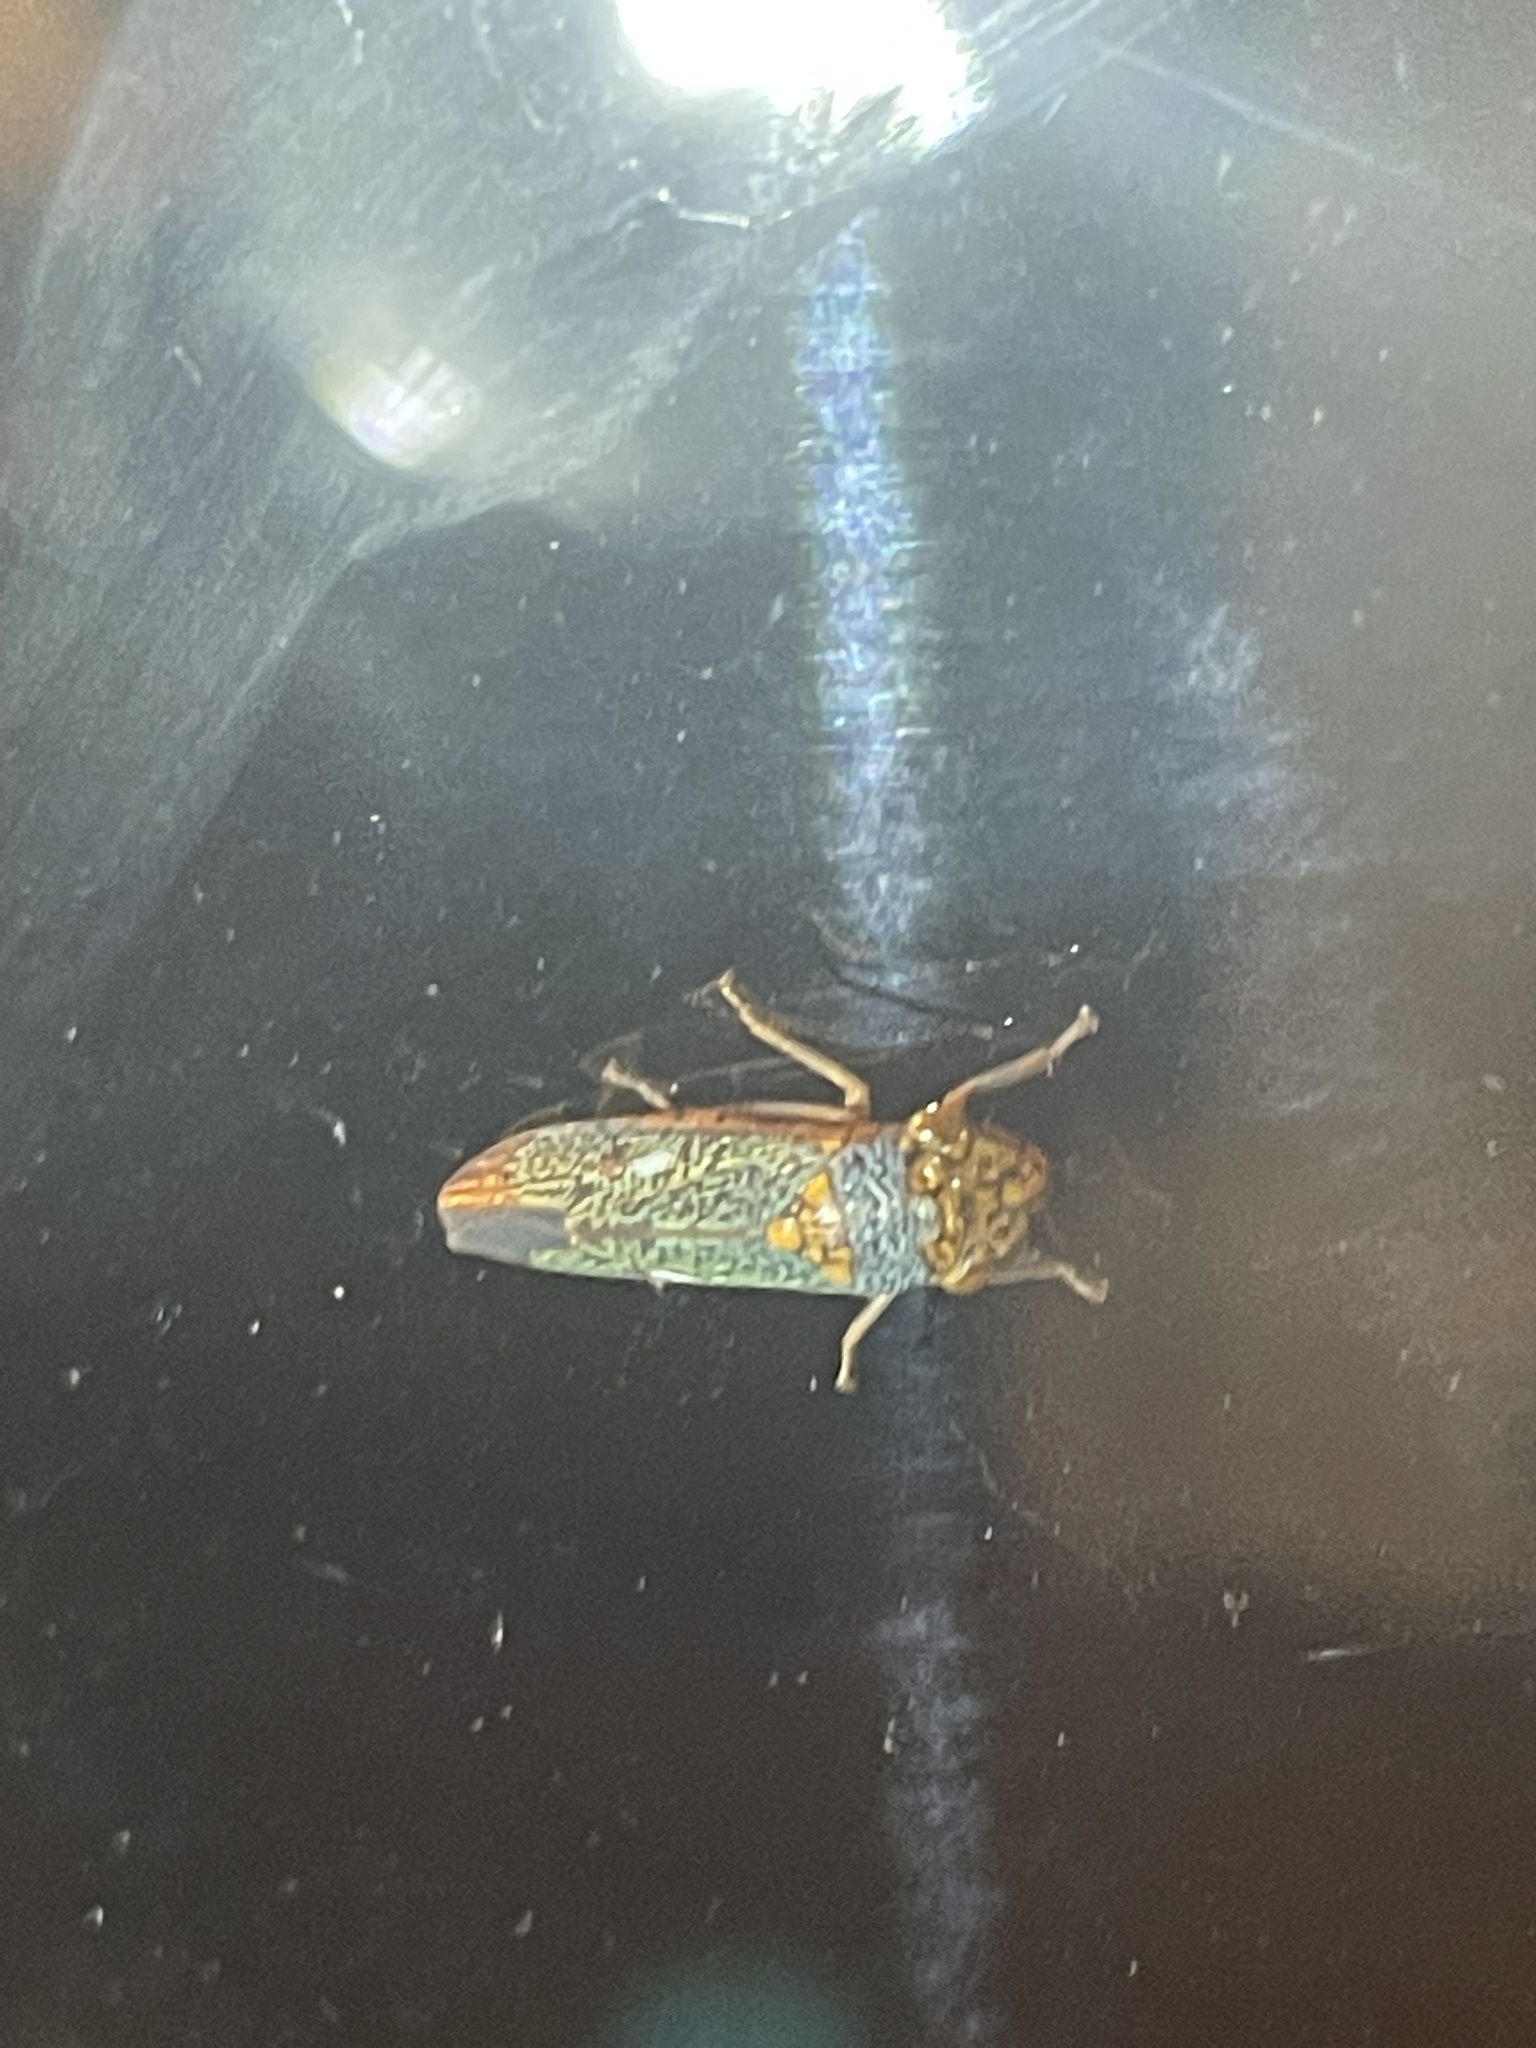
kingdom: Animalia
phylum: Arthropoda
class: Insecta
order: Hemiptera
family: Cicadellidae
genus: Oncometopia
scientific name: Oncometopia orbona
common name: Broad-headed sharpshooter
